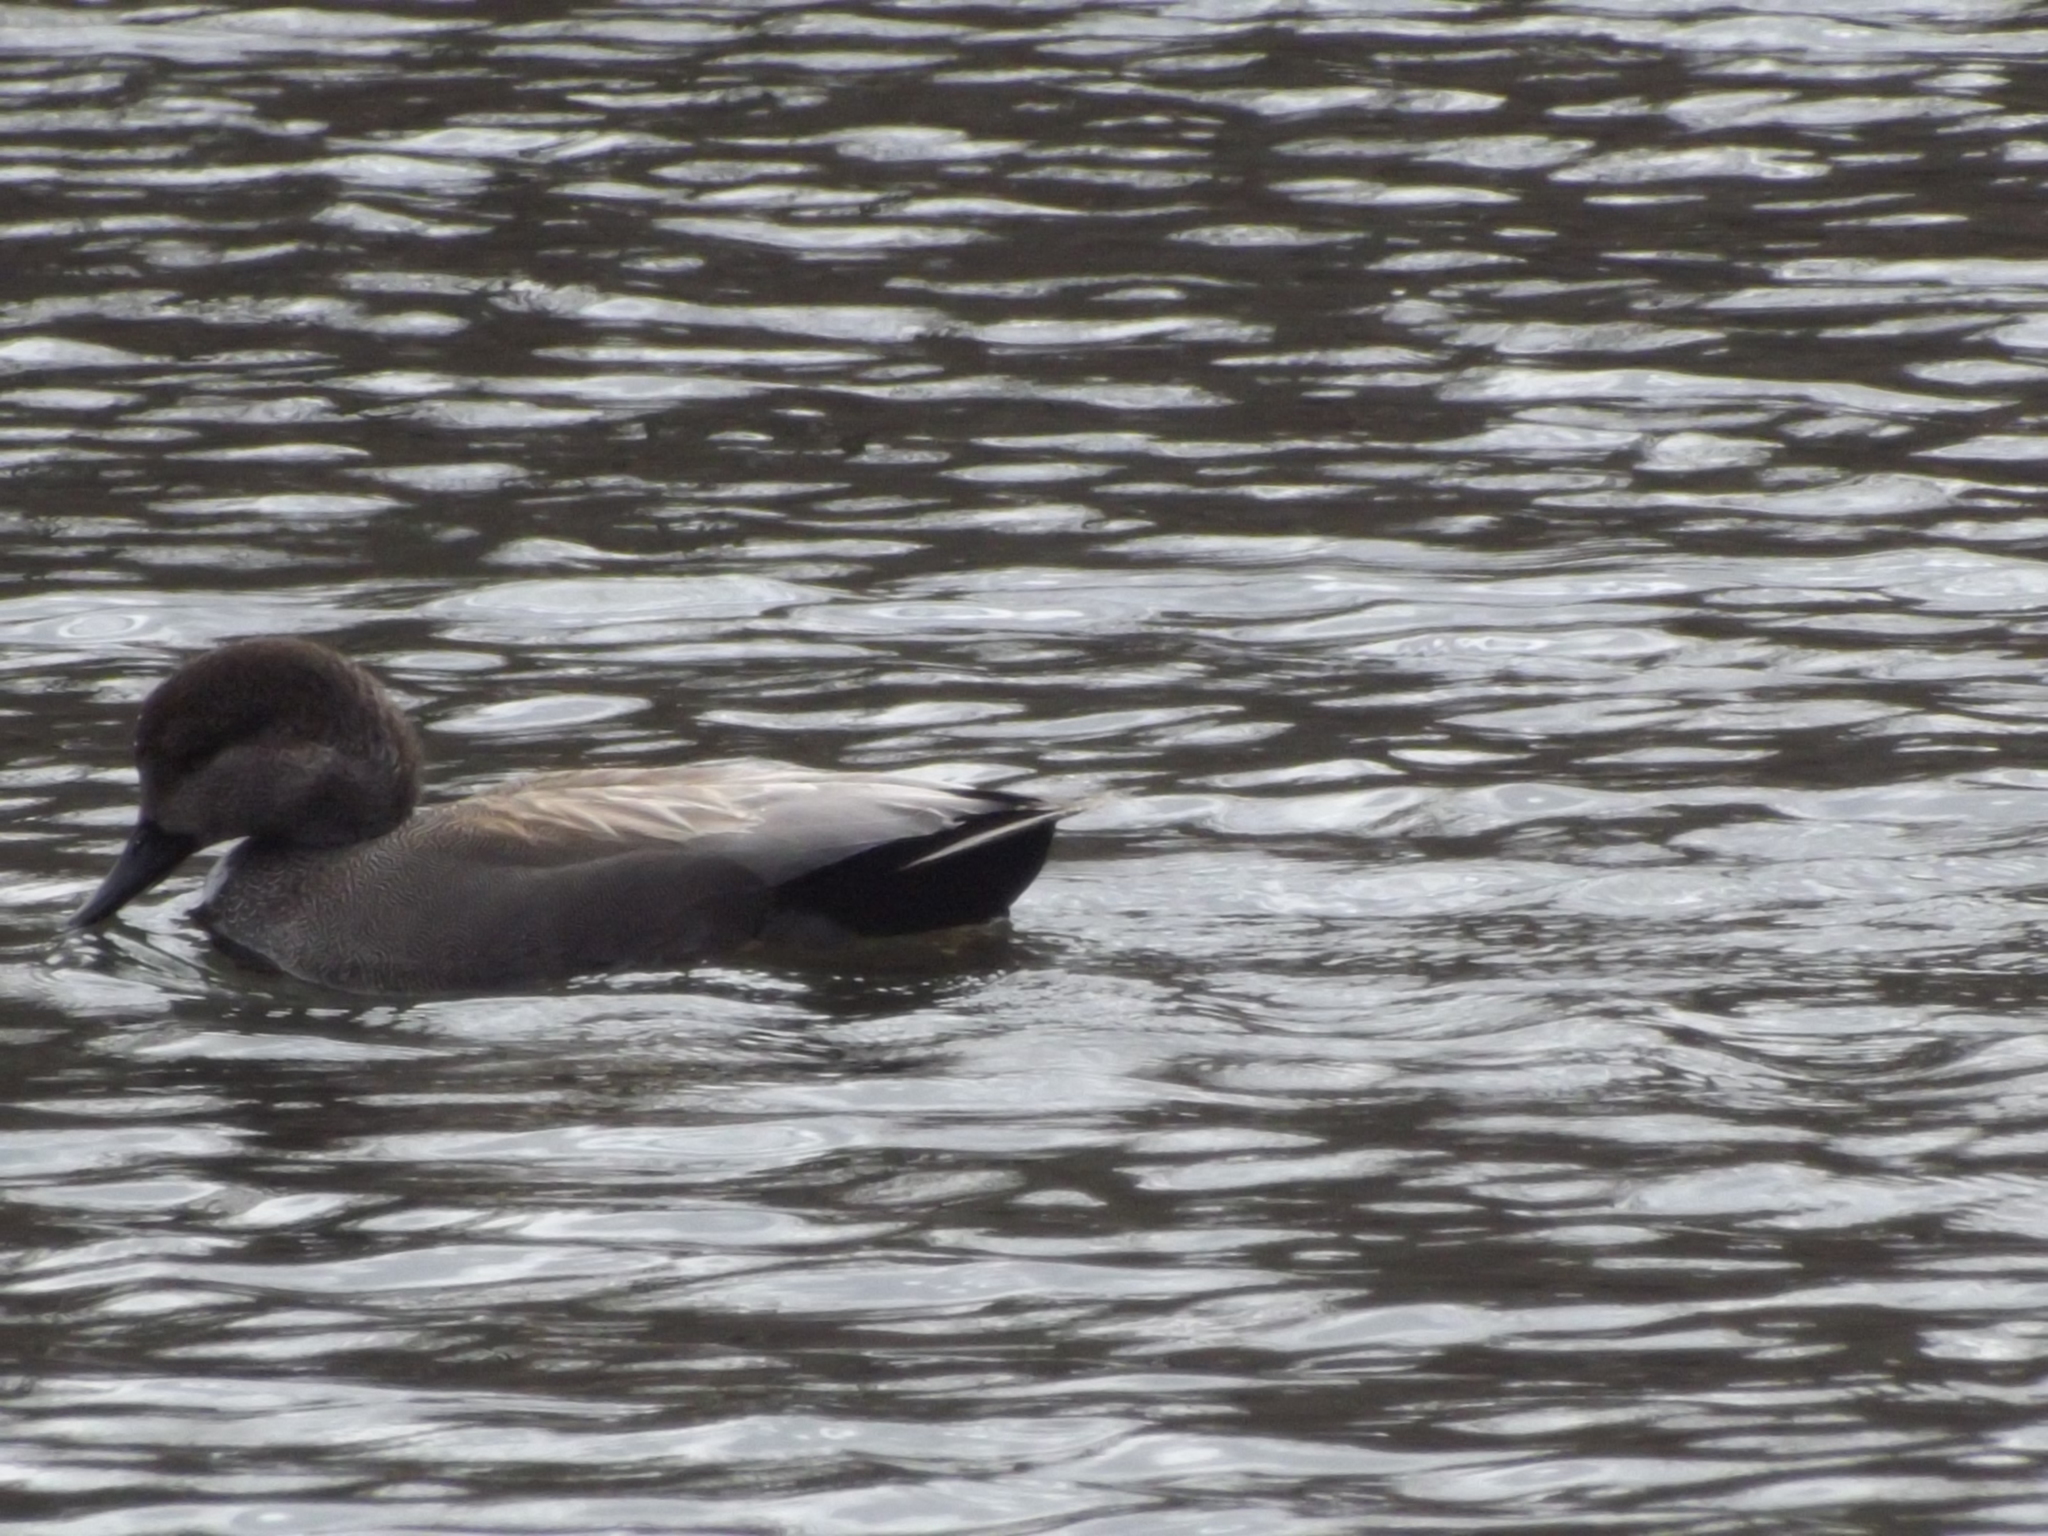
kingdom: Animalia
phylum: Chordata
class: Aves
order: Anseriformes
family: Anatidae
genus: Mareca
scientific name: Mareca strepera
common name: Gadwall
